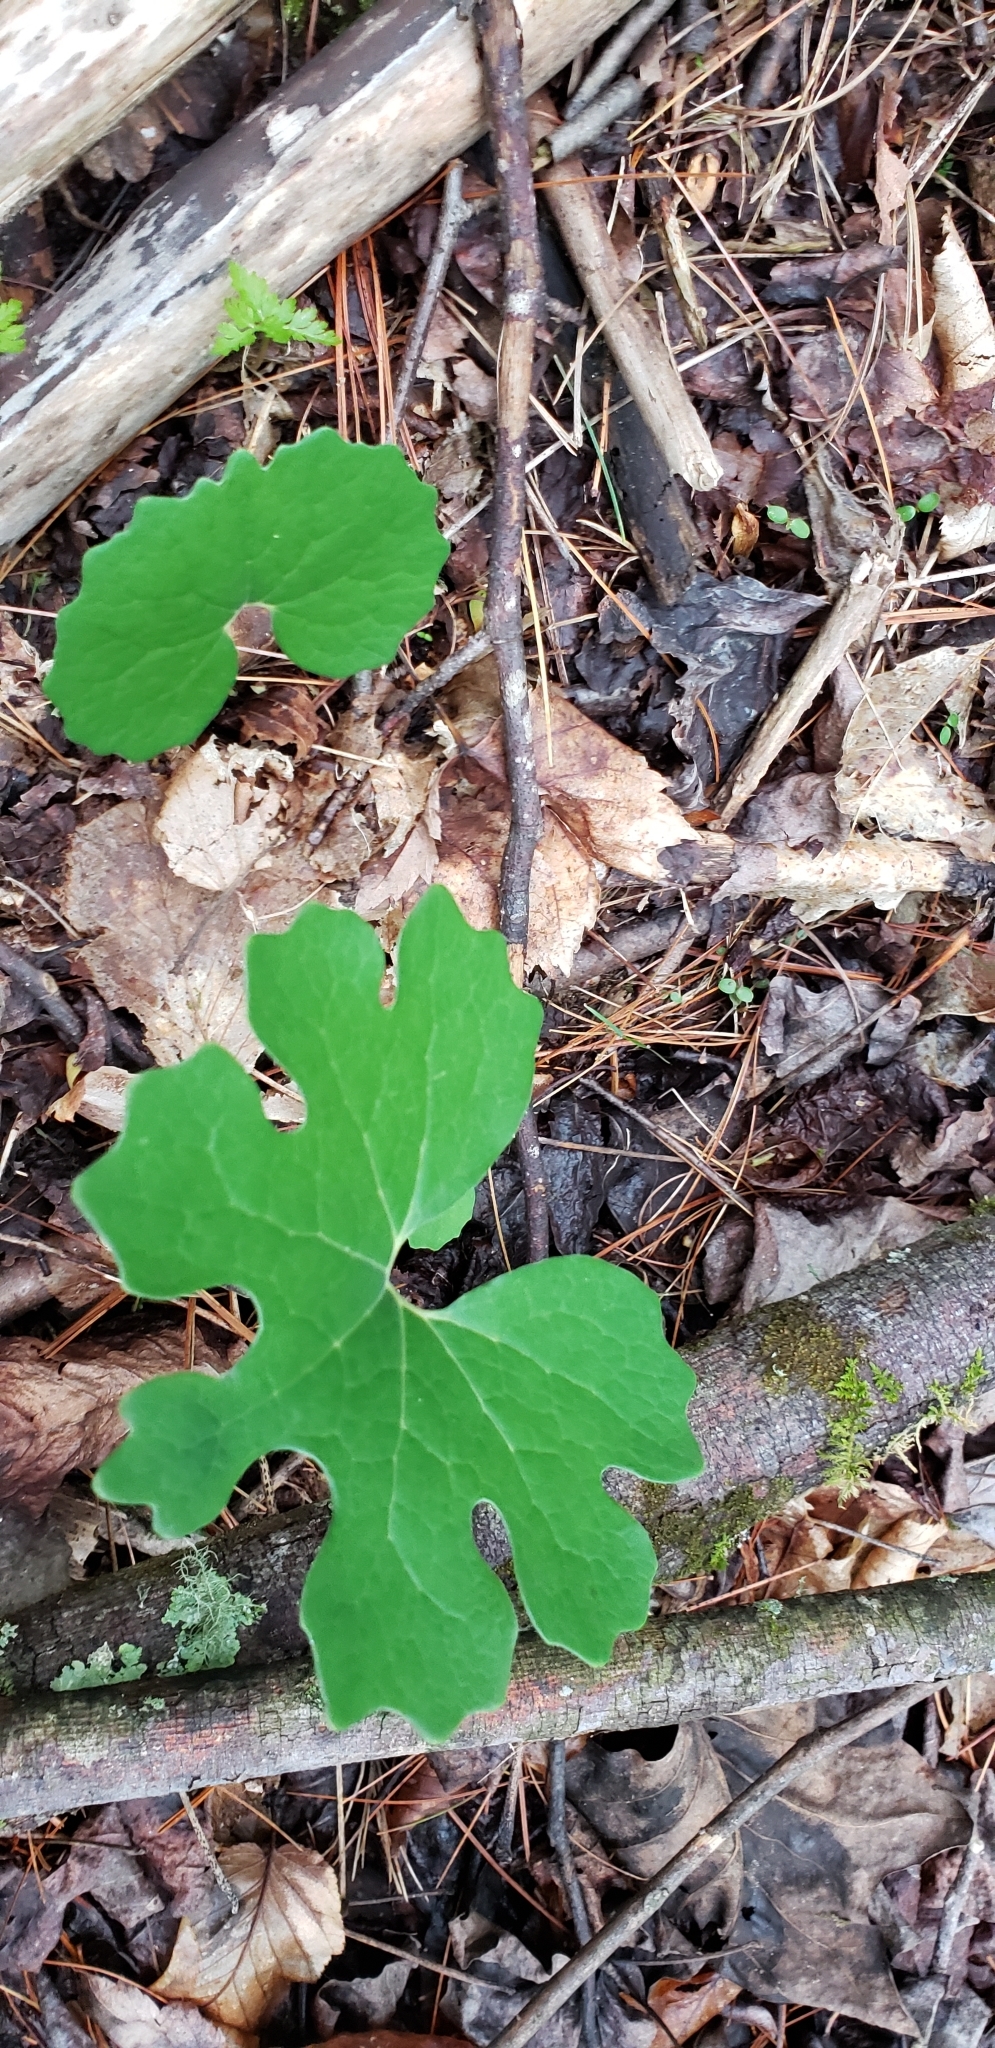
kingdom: Plantae
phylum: Tracheophyta
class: Magnoliopsida
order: Ranunculales
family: Papaveraceae
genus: Sanguinaria
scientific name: Sanguinaria canadensis
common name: Bloodroot
